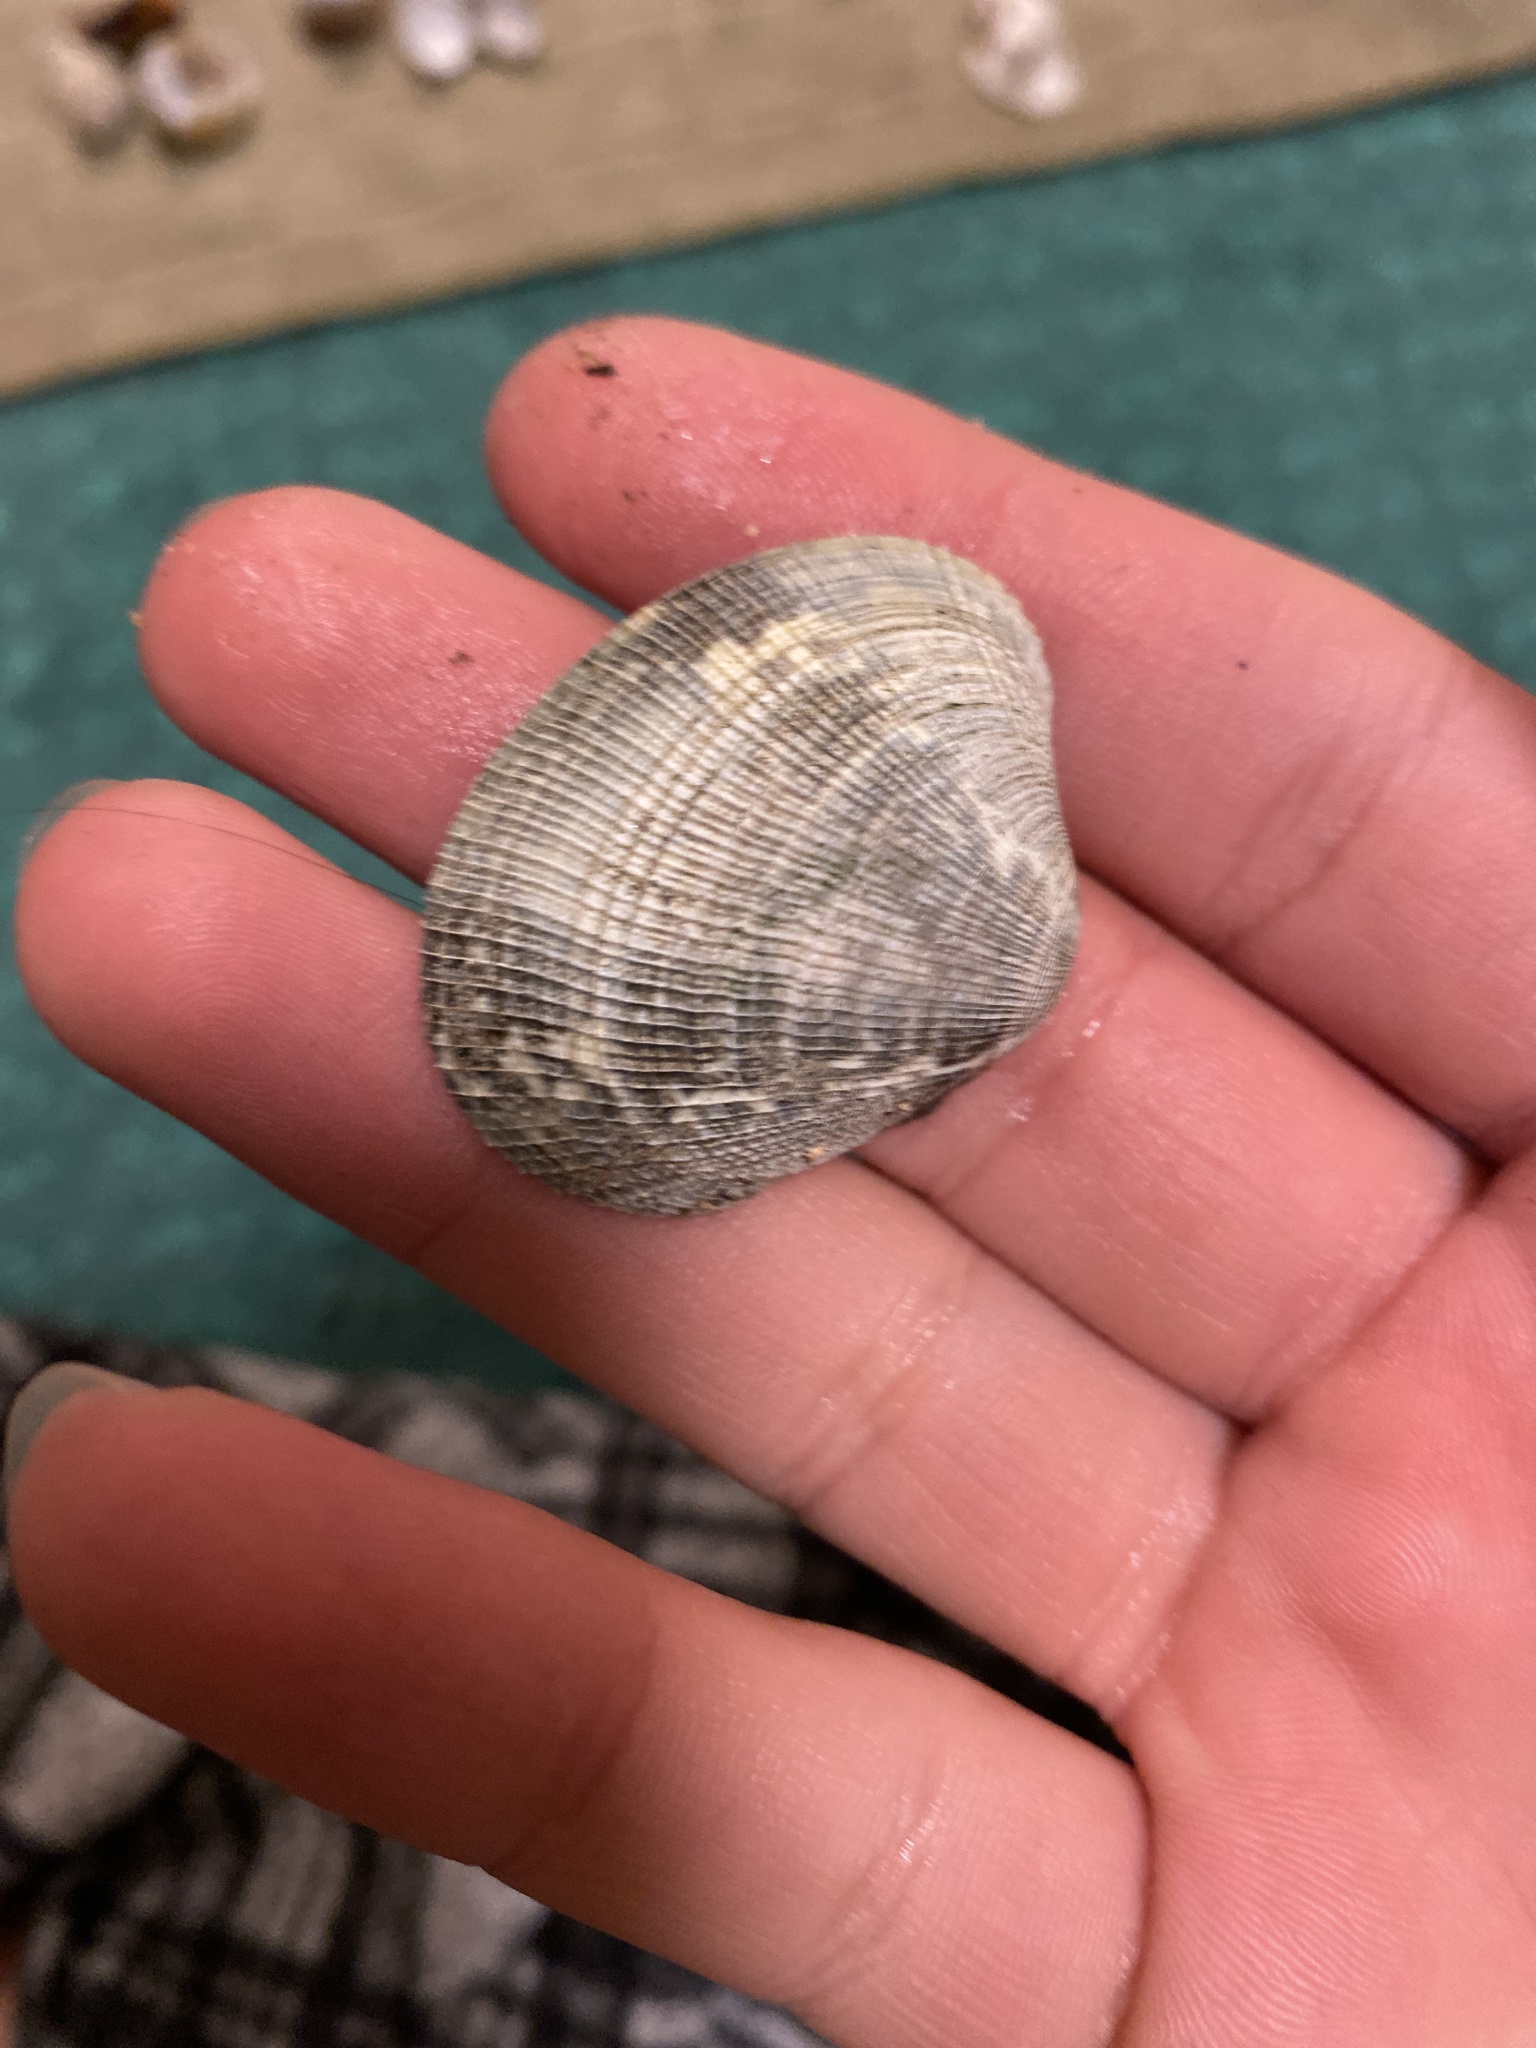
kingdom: Animalia
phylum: Mollusca
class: Bivalvia
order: Venerida
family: Veneridae
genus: Ruditapes
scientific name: Ruditapes philippinarum
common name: Manila clam
